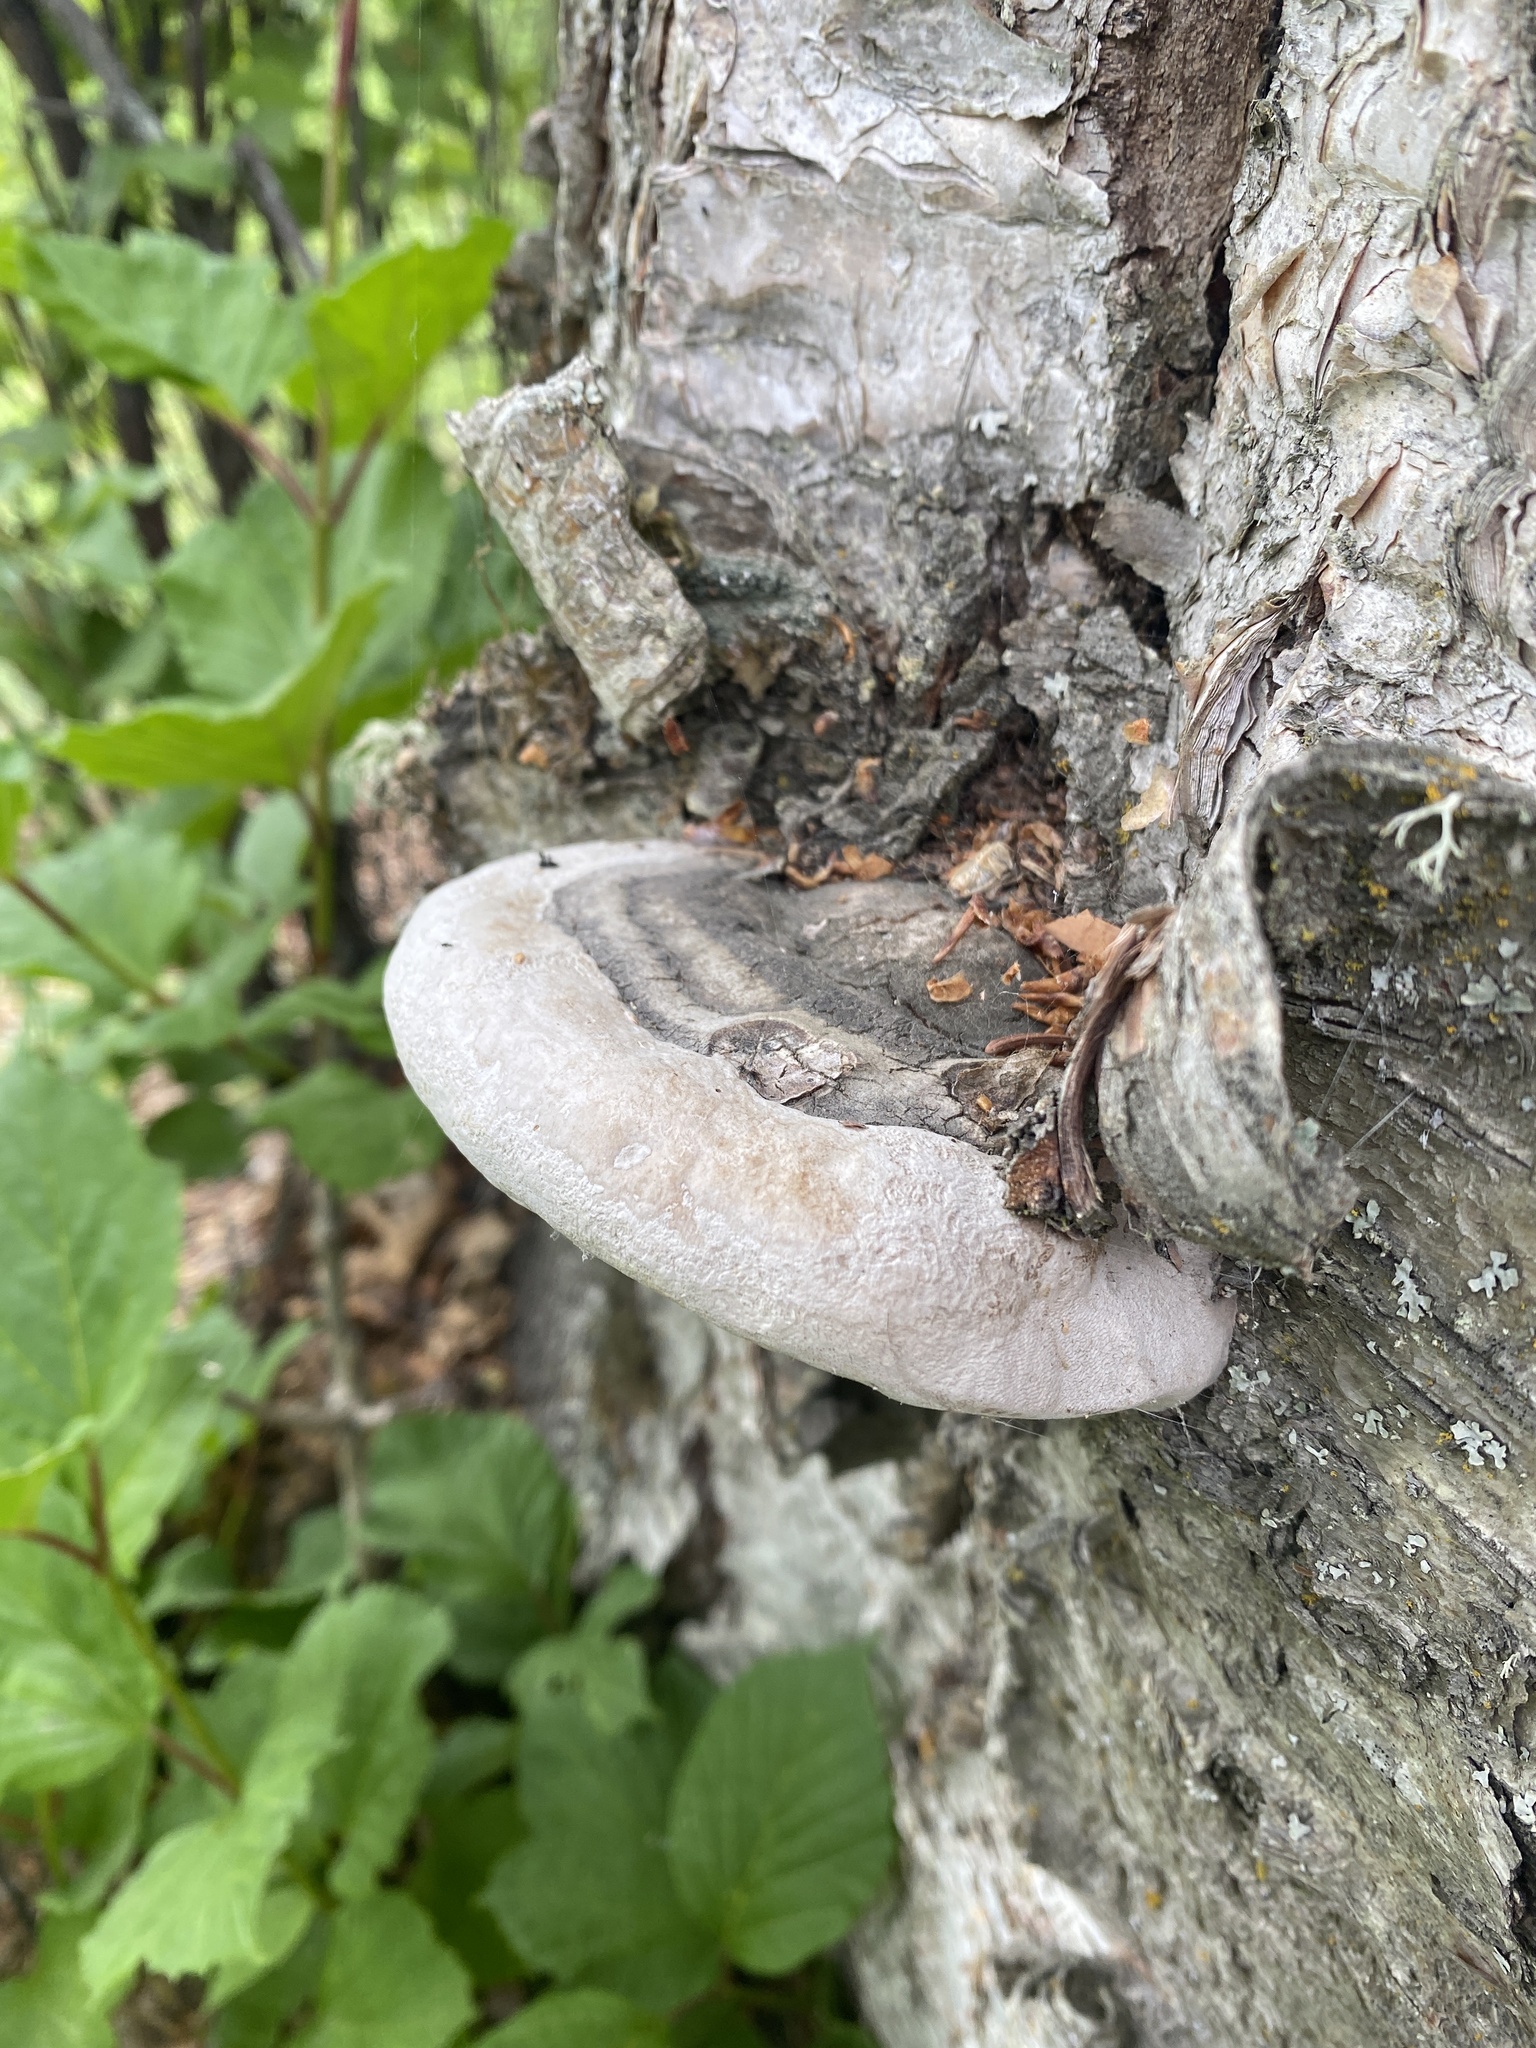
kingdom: Fungi
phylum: Basidiomycota
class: Agaricomycetes
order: Hymenochaetales
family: Hymenochaetaceae
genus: Phellinus
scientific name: Phellinus igniarius
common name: Willow bracket
